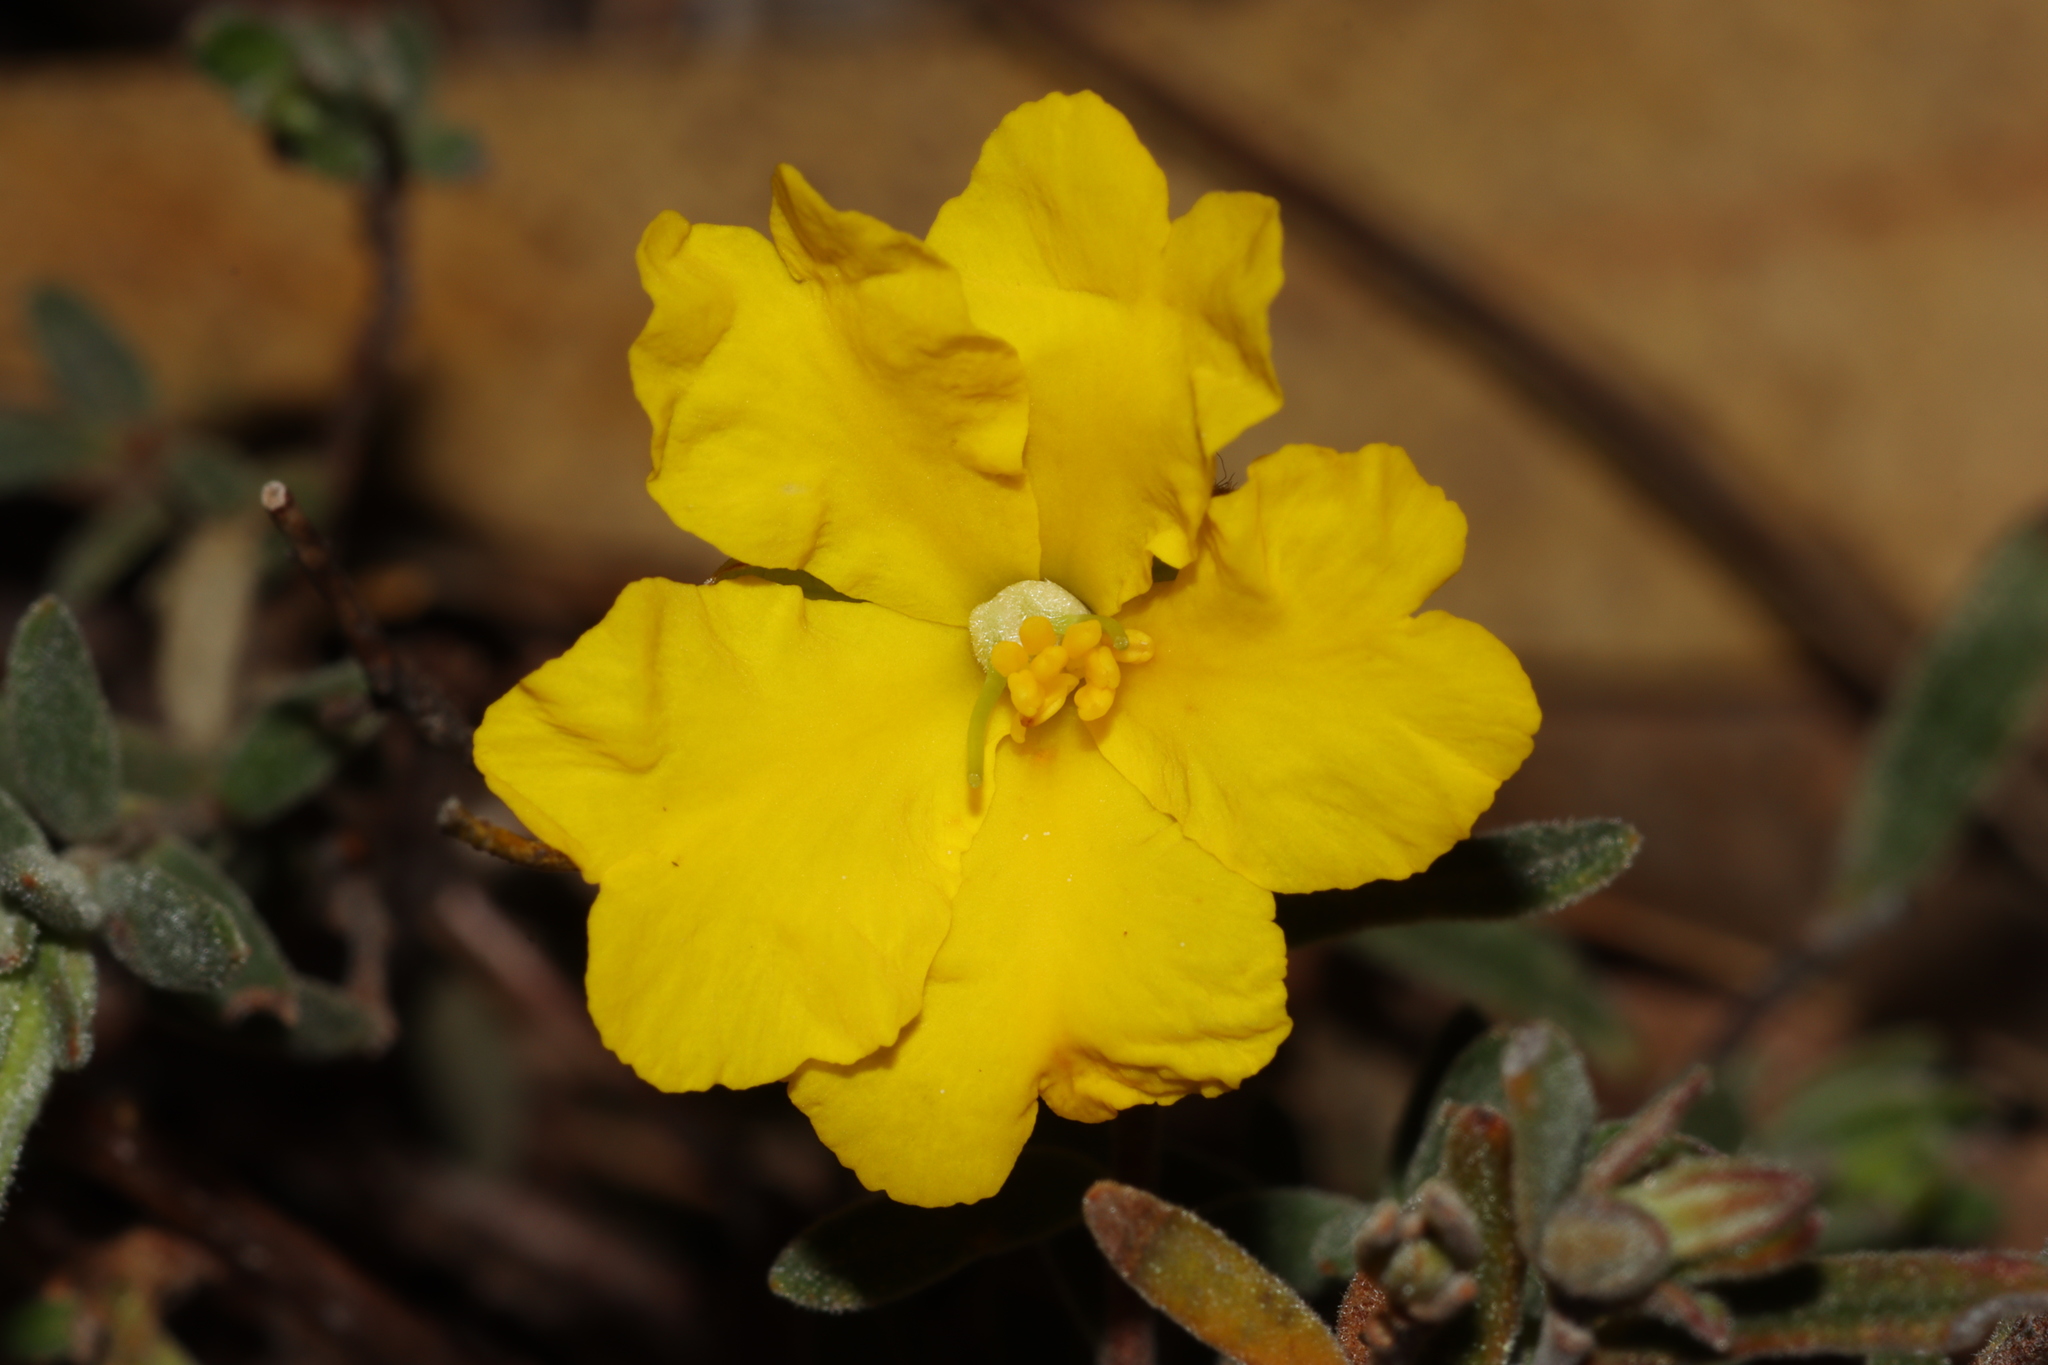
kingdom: Plantae
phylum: Tracheophyta
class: Magnoliopsida
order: Dilleniales
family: Dilleniaceae
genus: Hibbertia
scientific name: Hibbertia crinita
